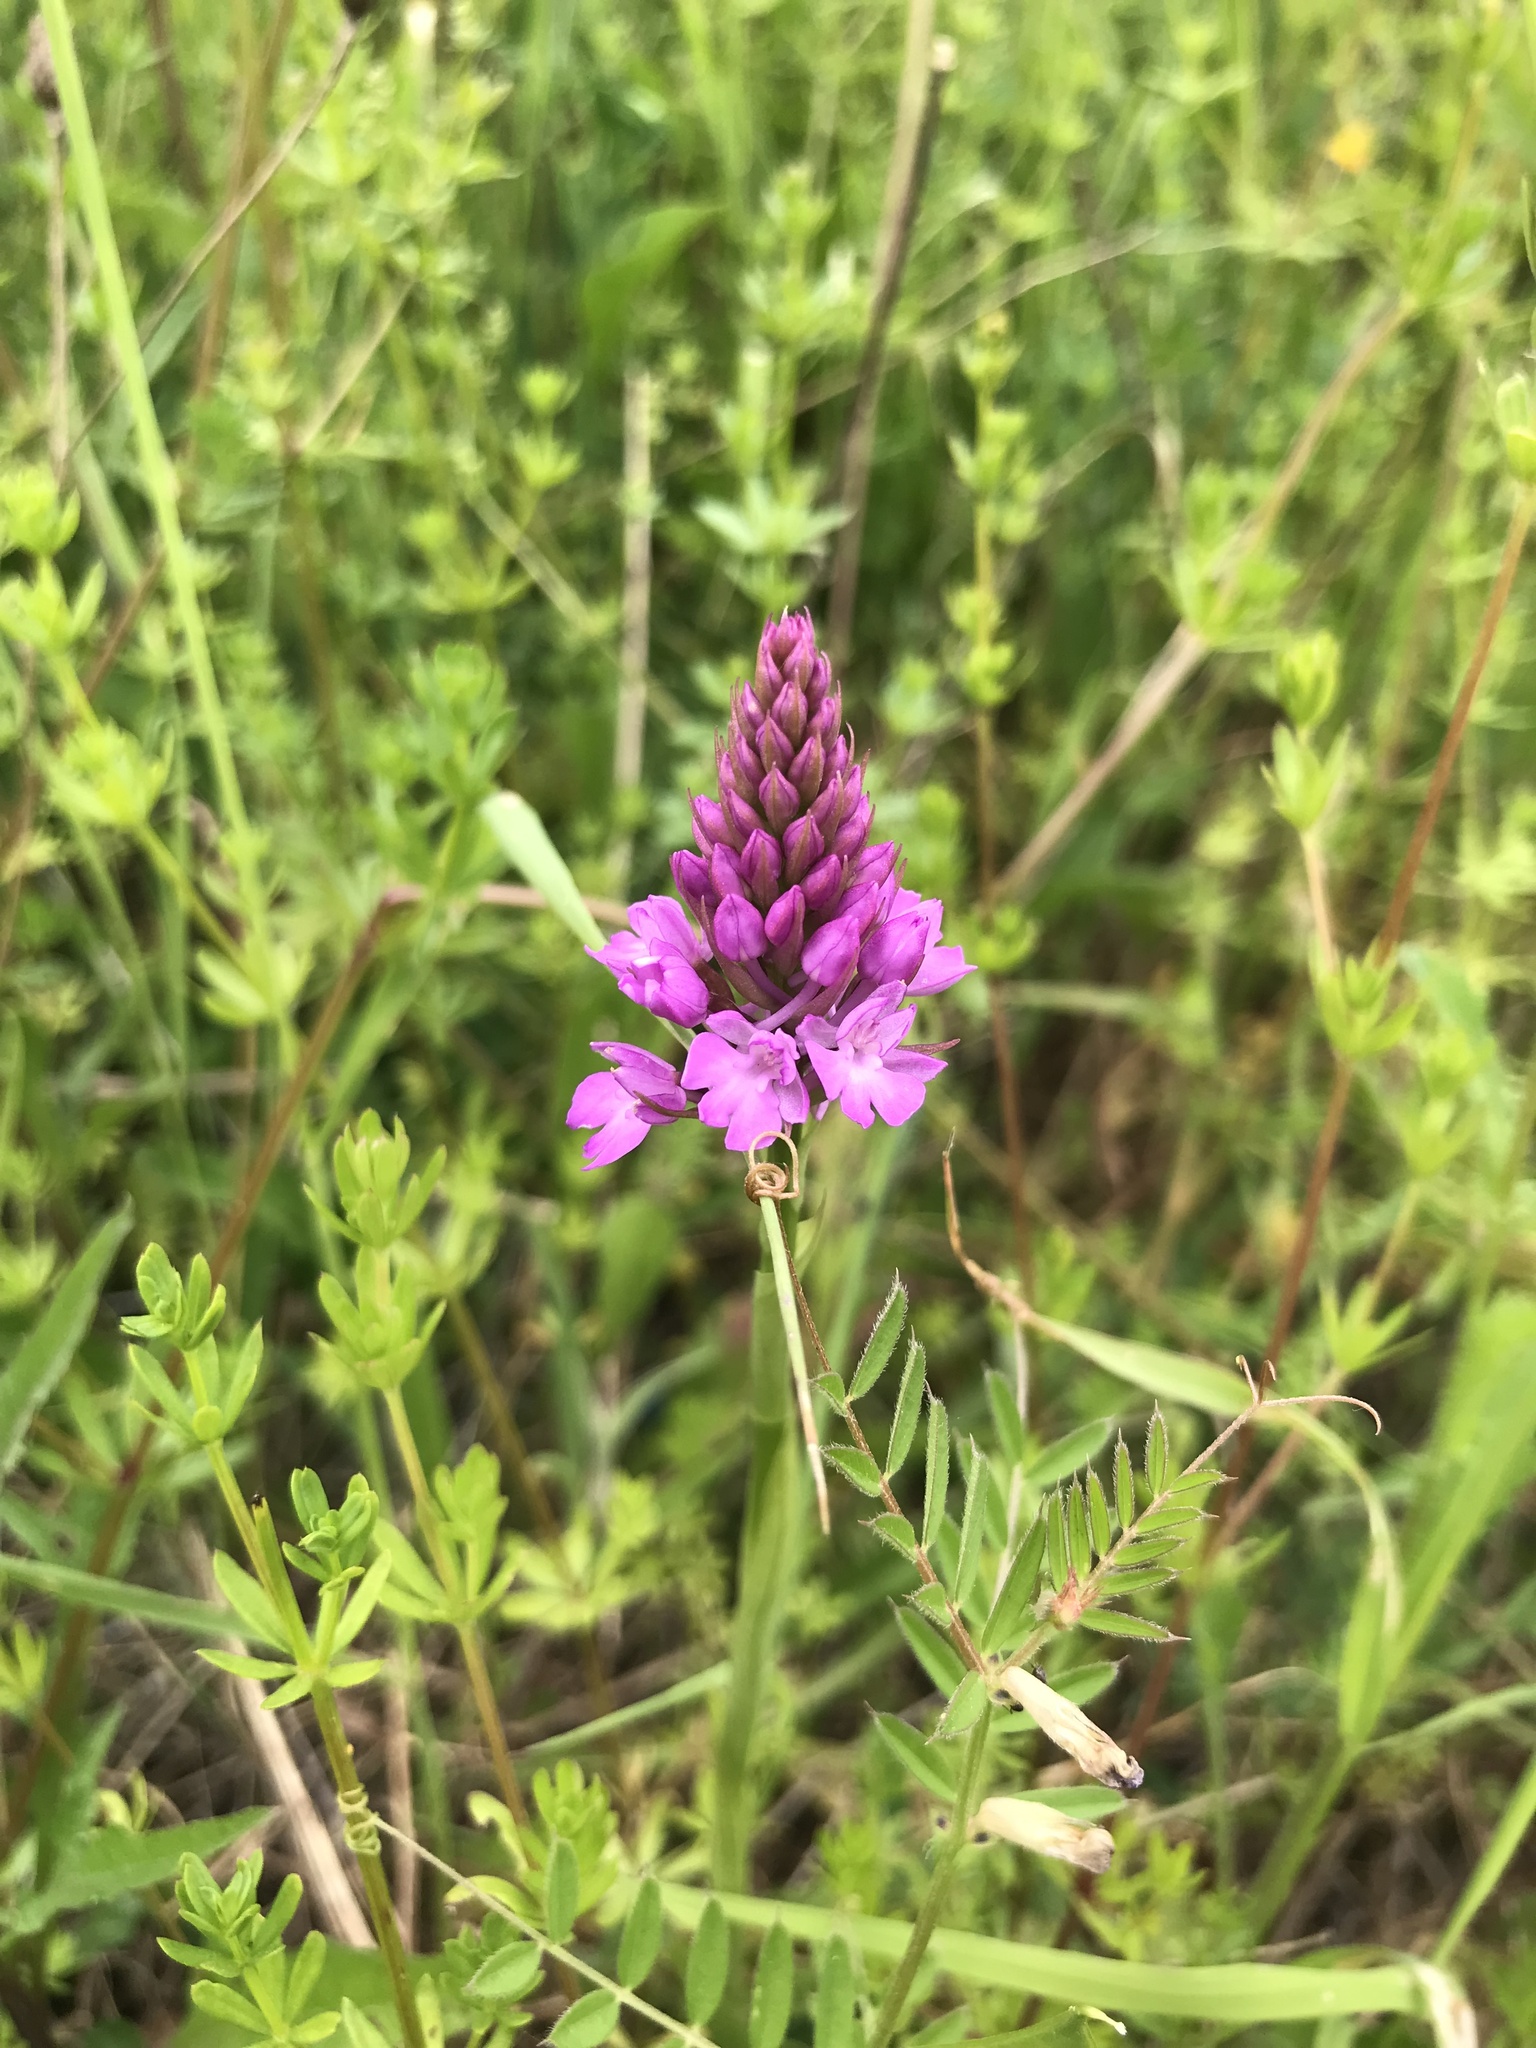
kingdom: Plantae
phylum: Tracheophyta
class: Liliopsida
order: Asparagales
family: Orchidaceae
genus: Anacamptis
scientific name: Anacamptis pyramidalis
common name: Pyramidal orchid
